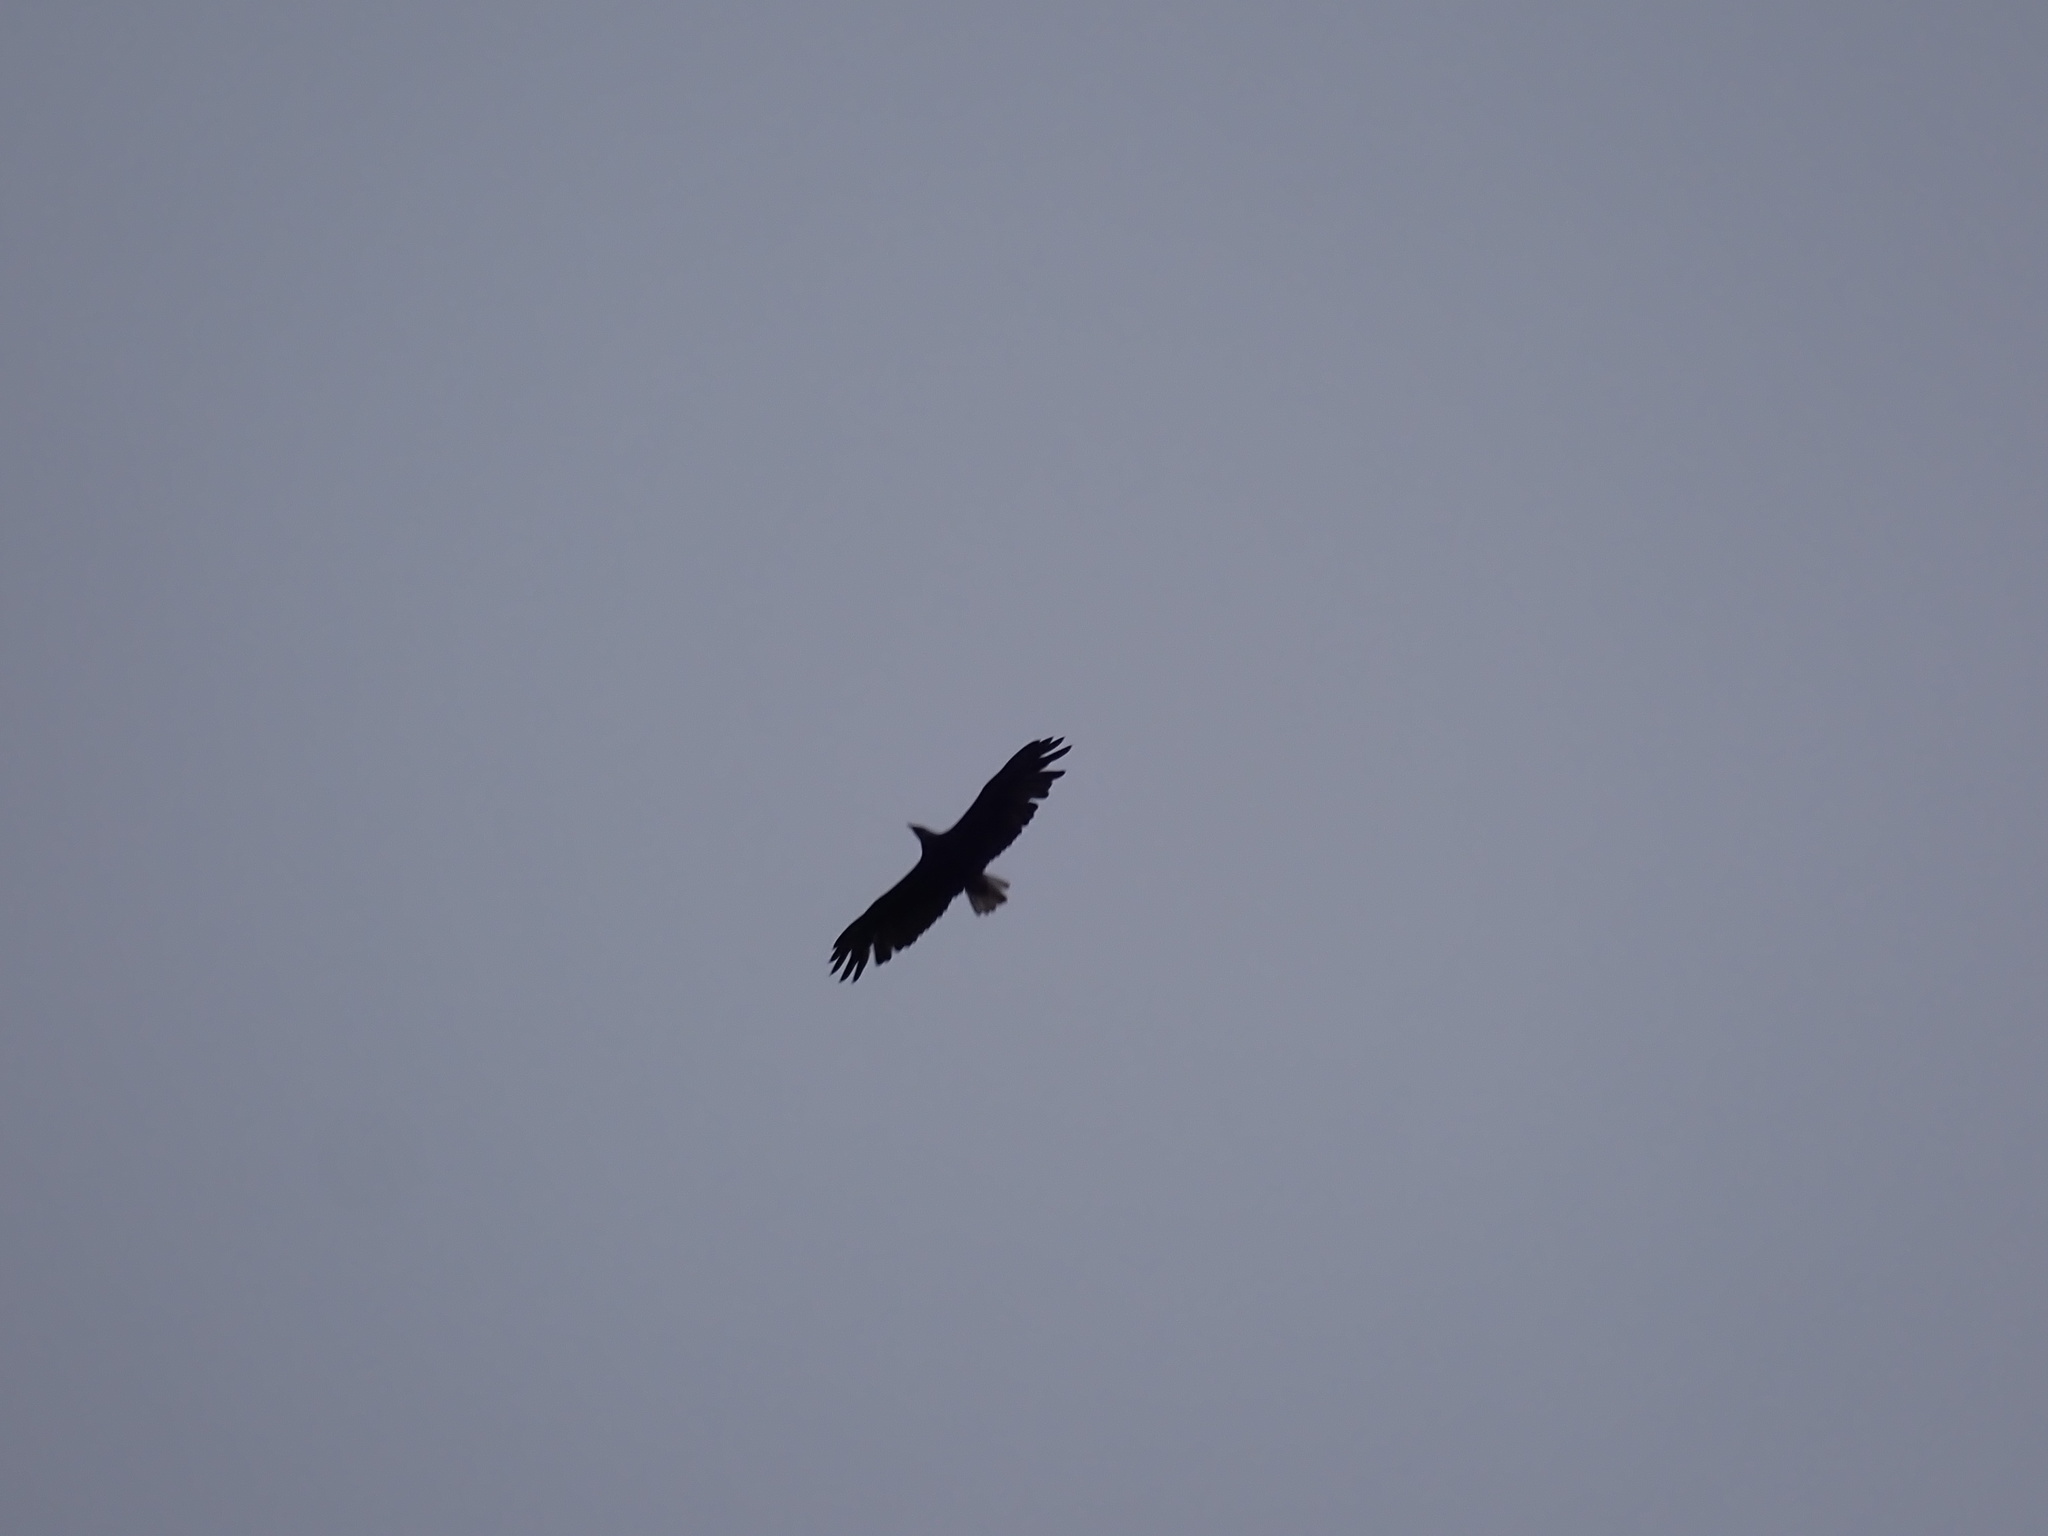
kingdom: Animalia
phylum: Chordata
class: Aves
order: Accipitriformes
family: Accipitridae
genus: Haliaeetus
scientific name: Haliaeetus leucocephalus
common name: Bald eagle
